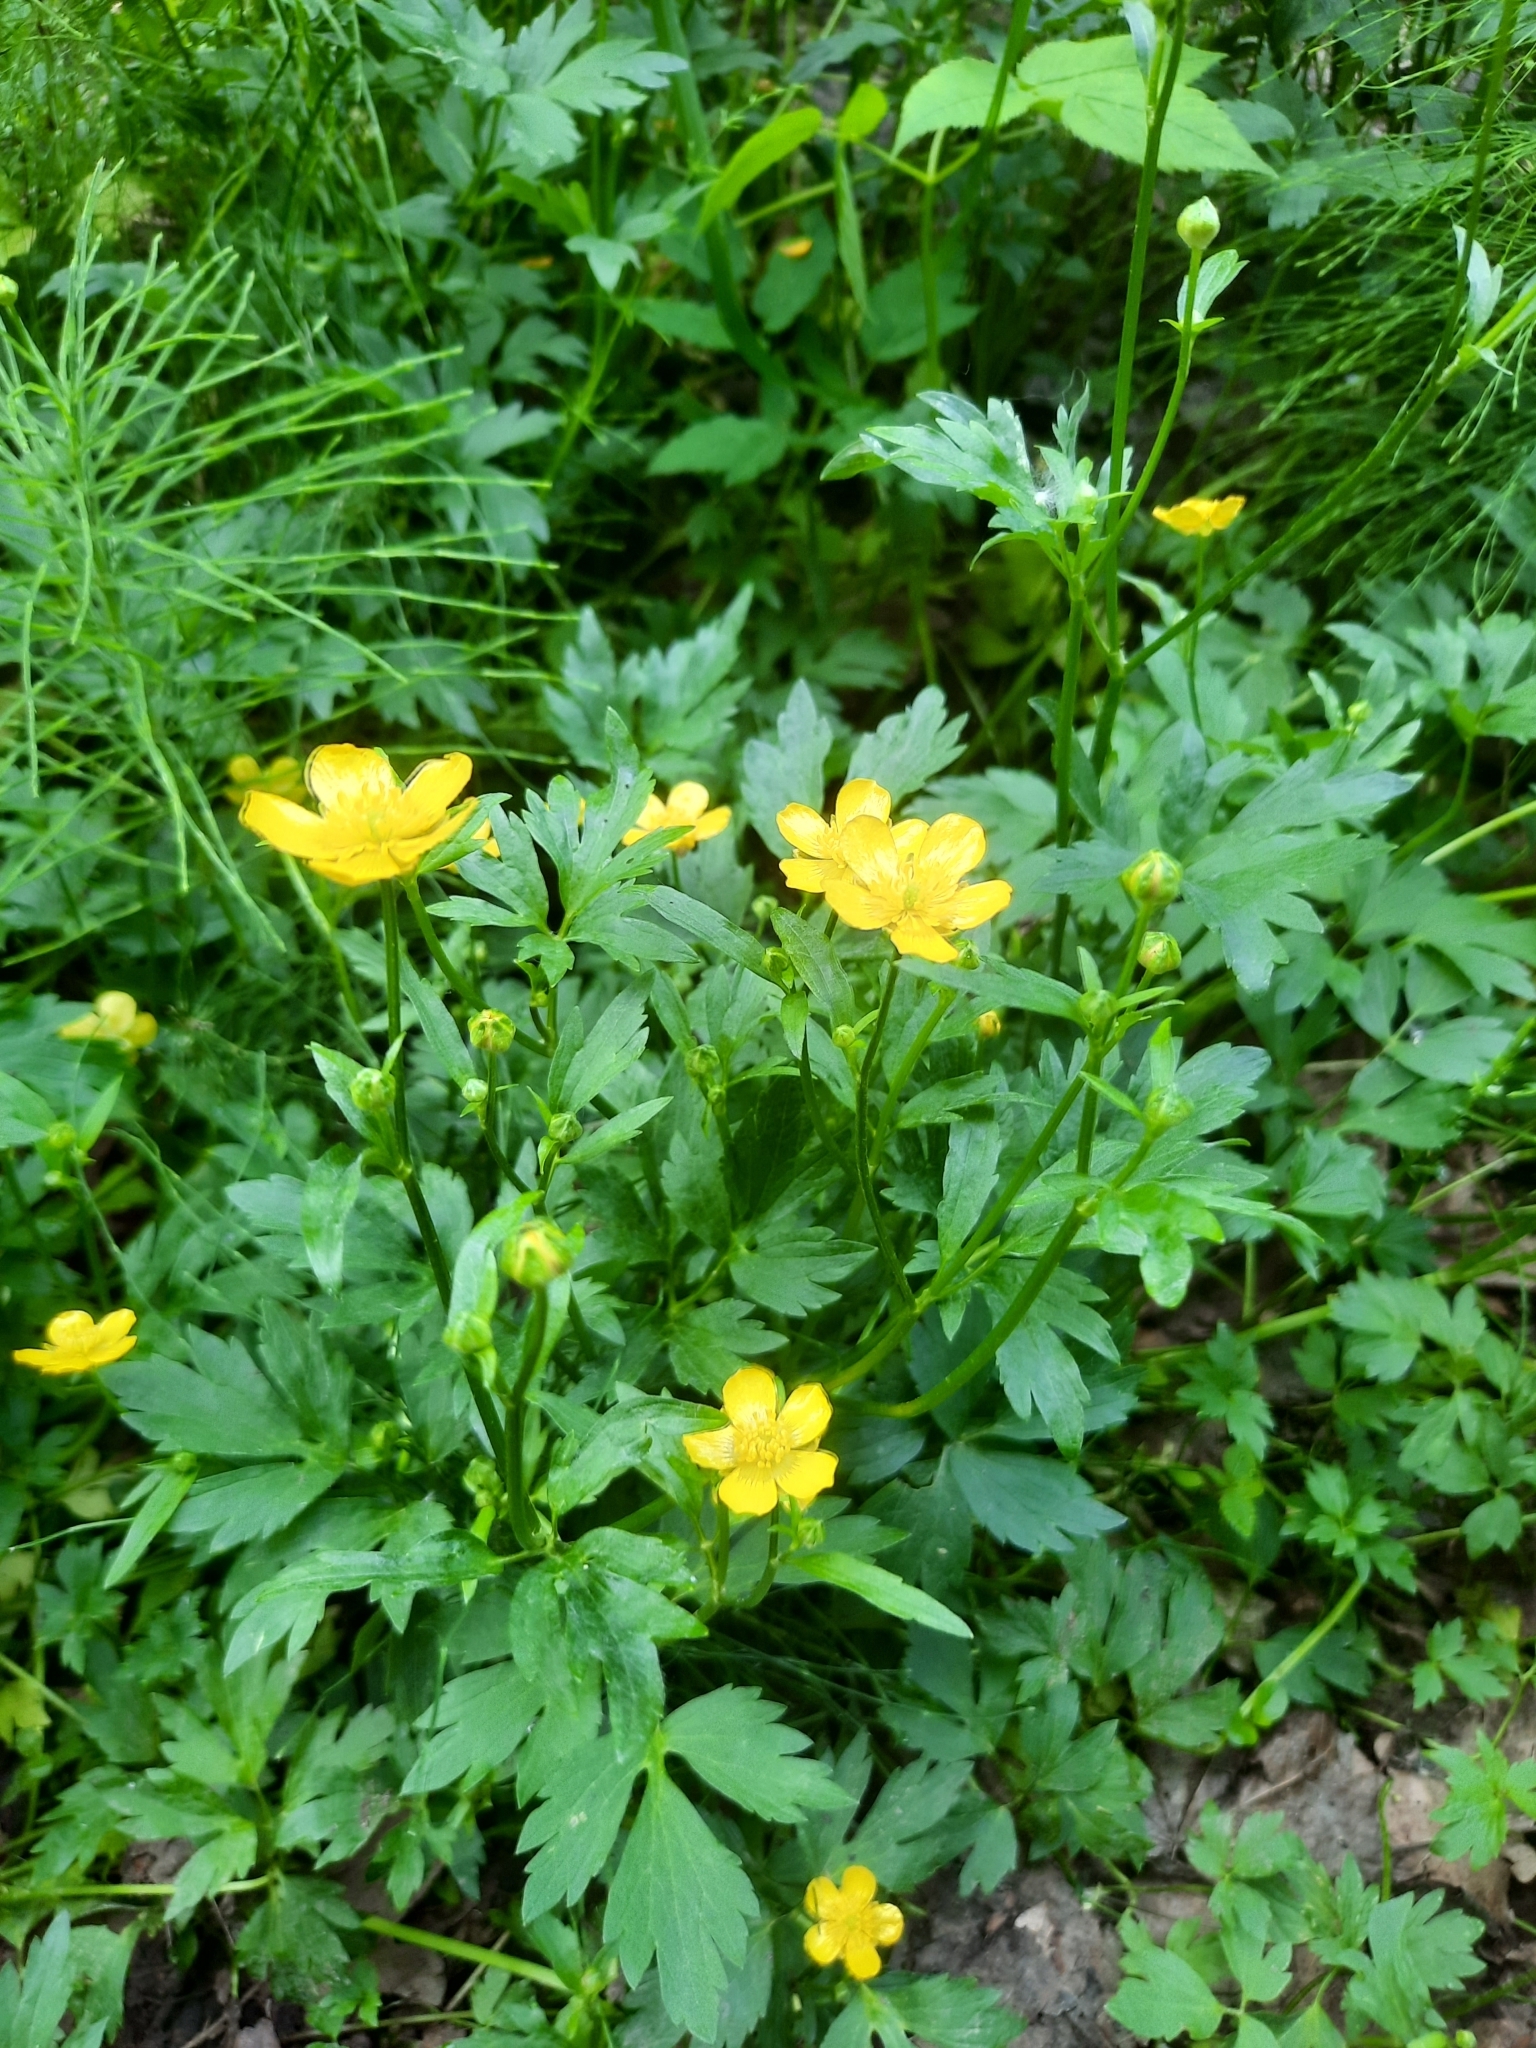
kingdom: Plantae
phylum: Tracheophyta
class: Magnoliopsida
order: Ranunculales
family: Ranunculaceae
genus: Ranunculus
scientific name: Ranunculus repens
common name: Creeping buttercup
